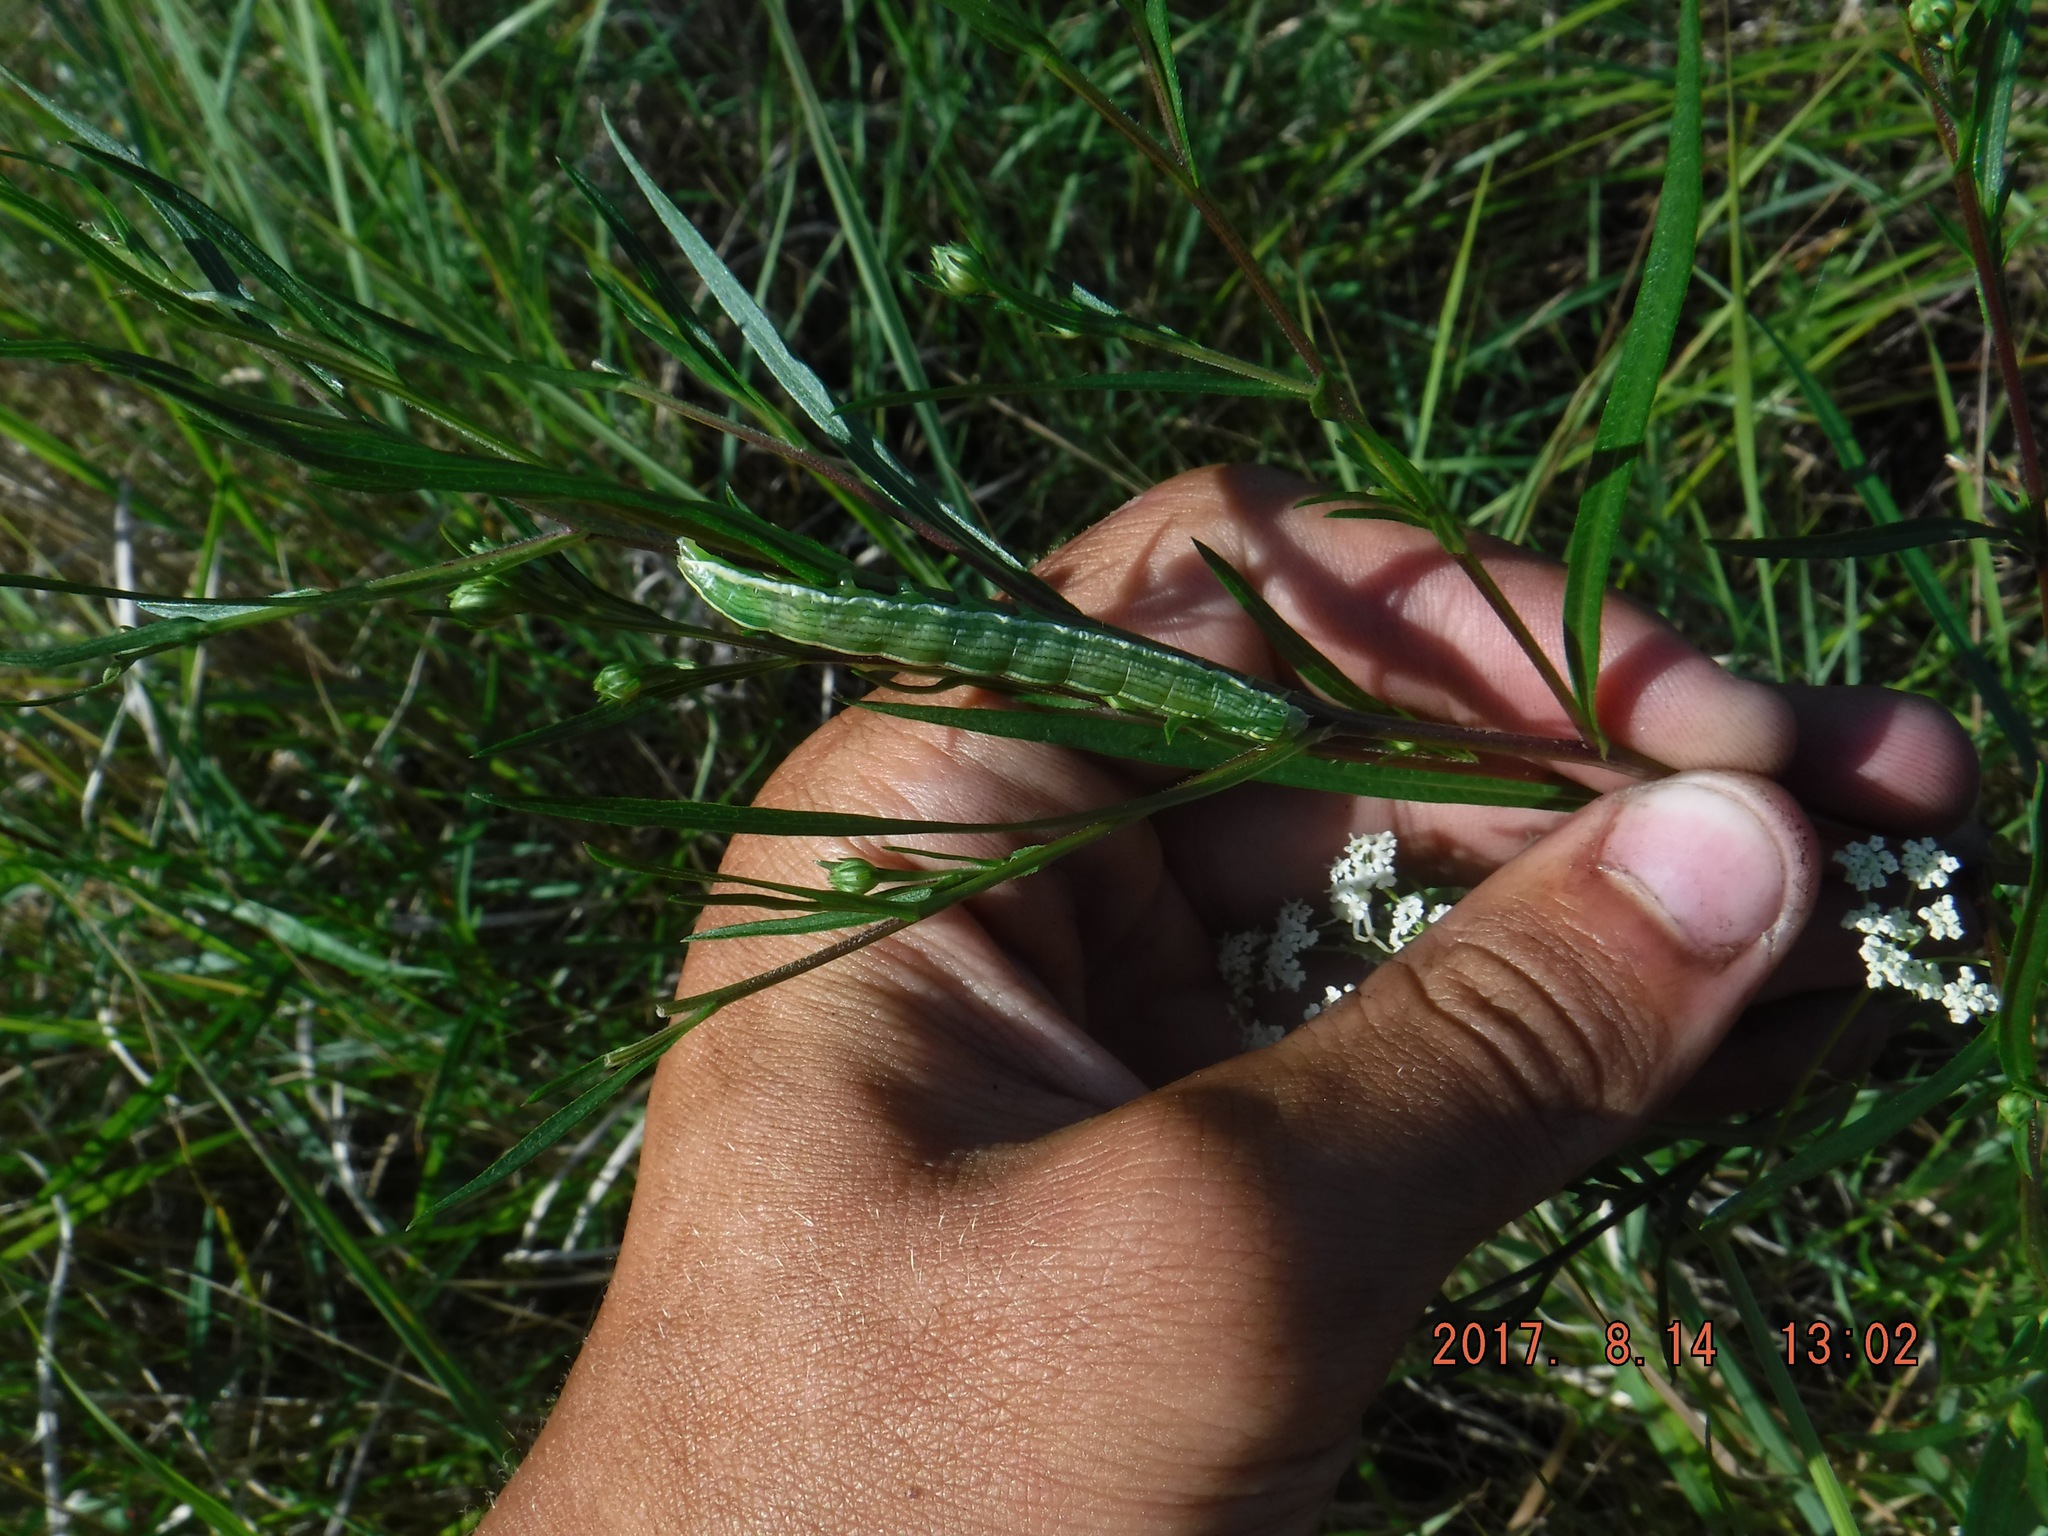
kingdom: Animalia
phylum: Arthropoda
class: Insecta
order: Lepidoptera
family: Noctuidae
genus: Cucullia
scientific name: Cucullia asteroides
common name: Asteroid moth
